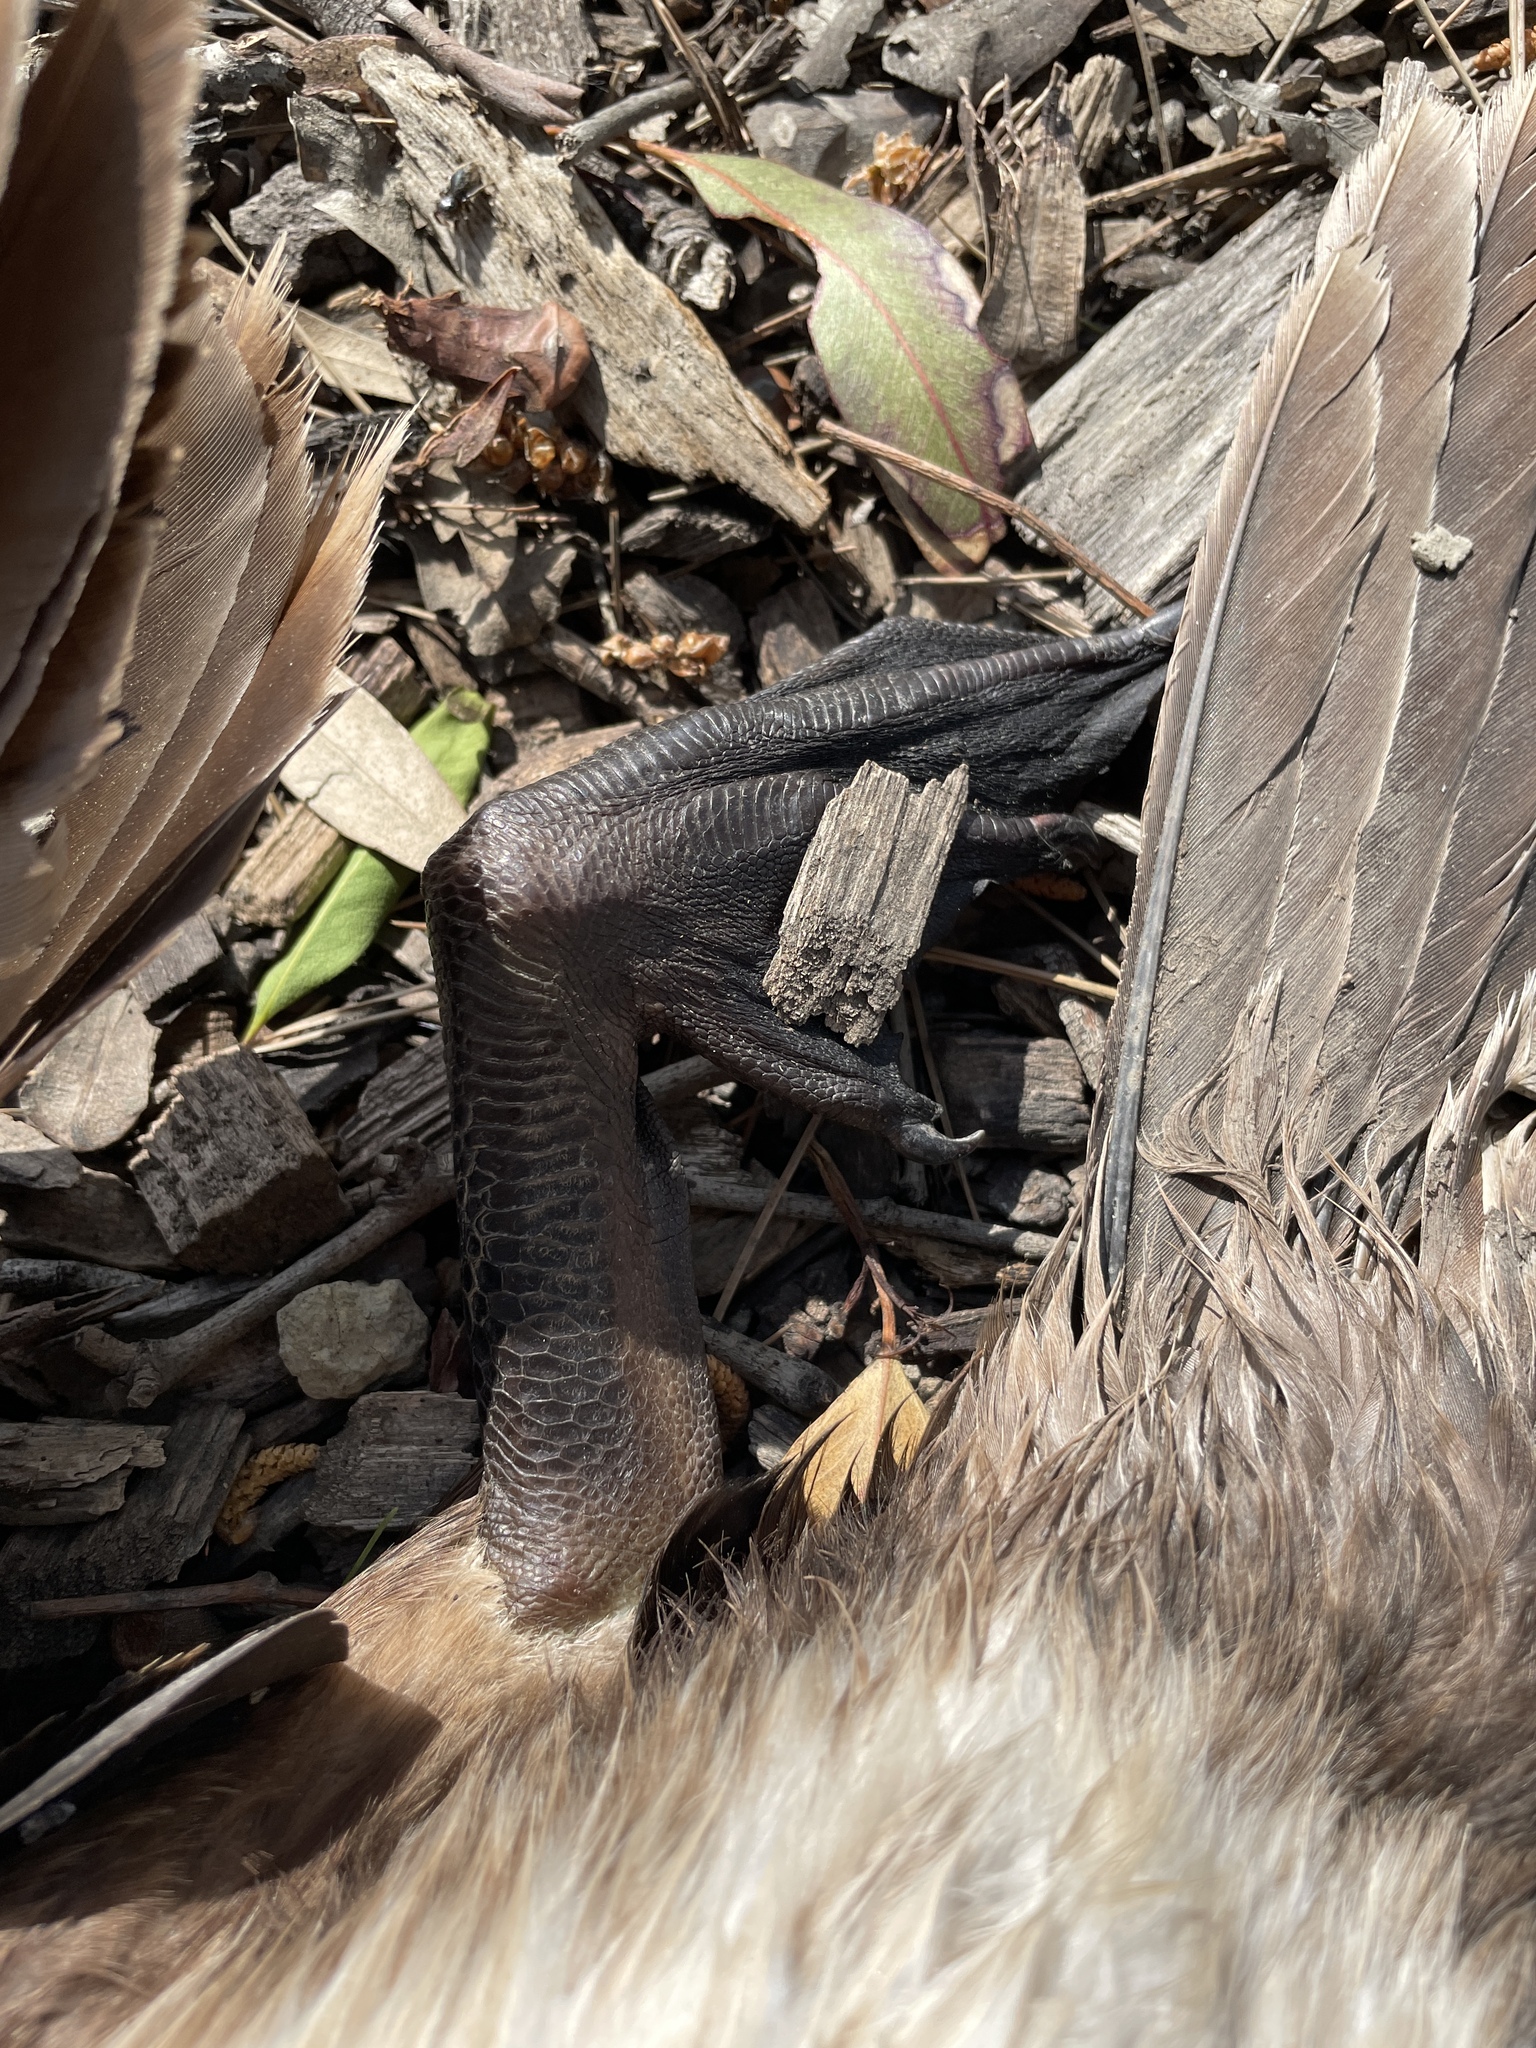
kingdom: Animalia
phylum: Chordata
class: Aves
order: Suliformes
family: Phalacrocoracidae
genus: Phalacrocorax
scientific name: Phalacrocorax auritus
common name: Double-crested cormorant
